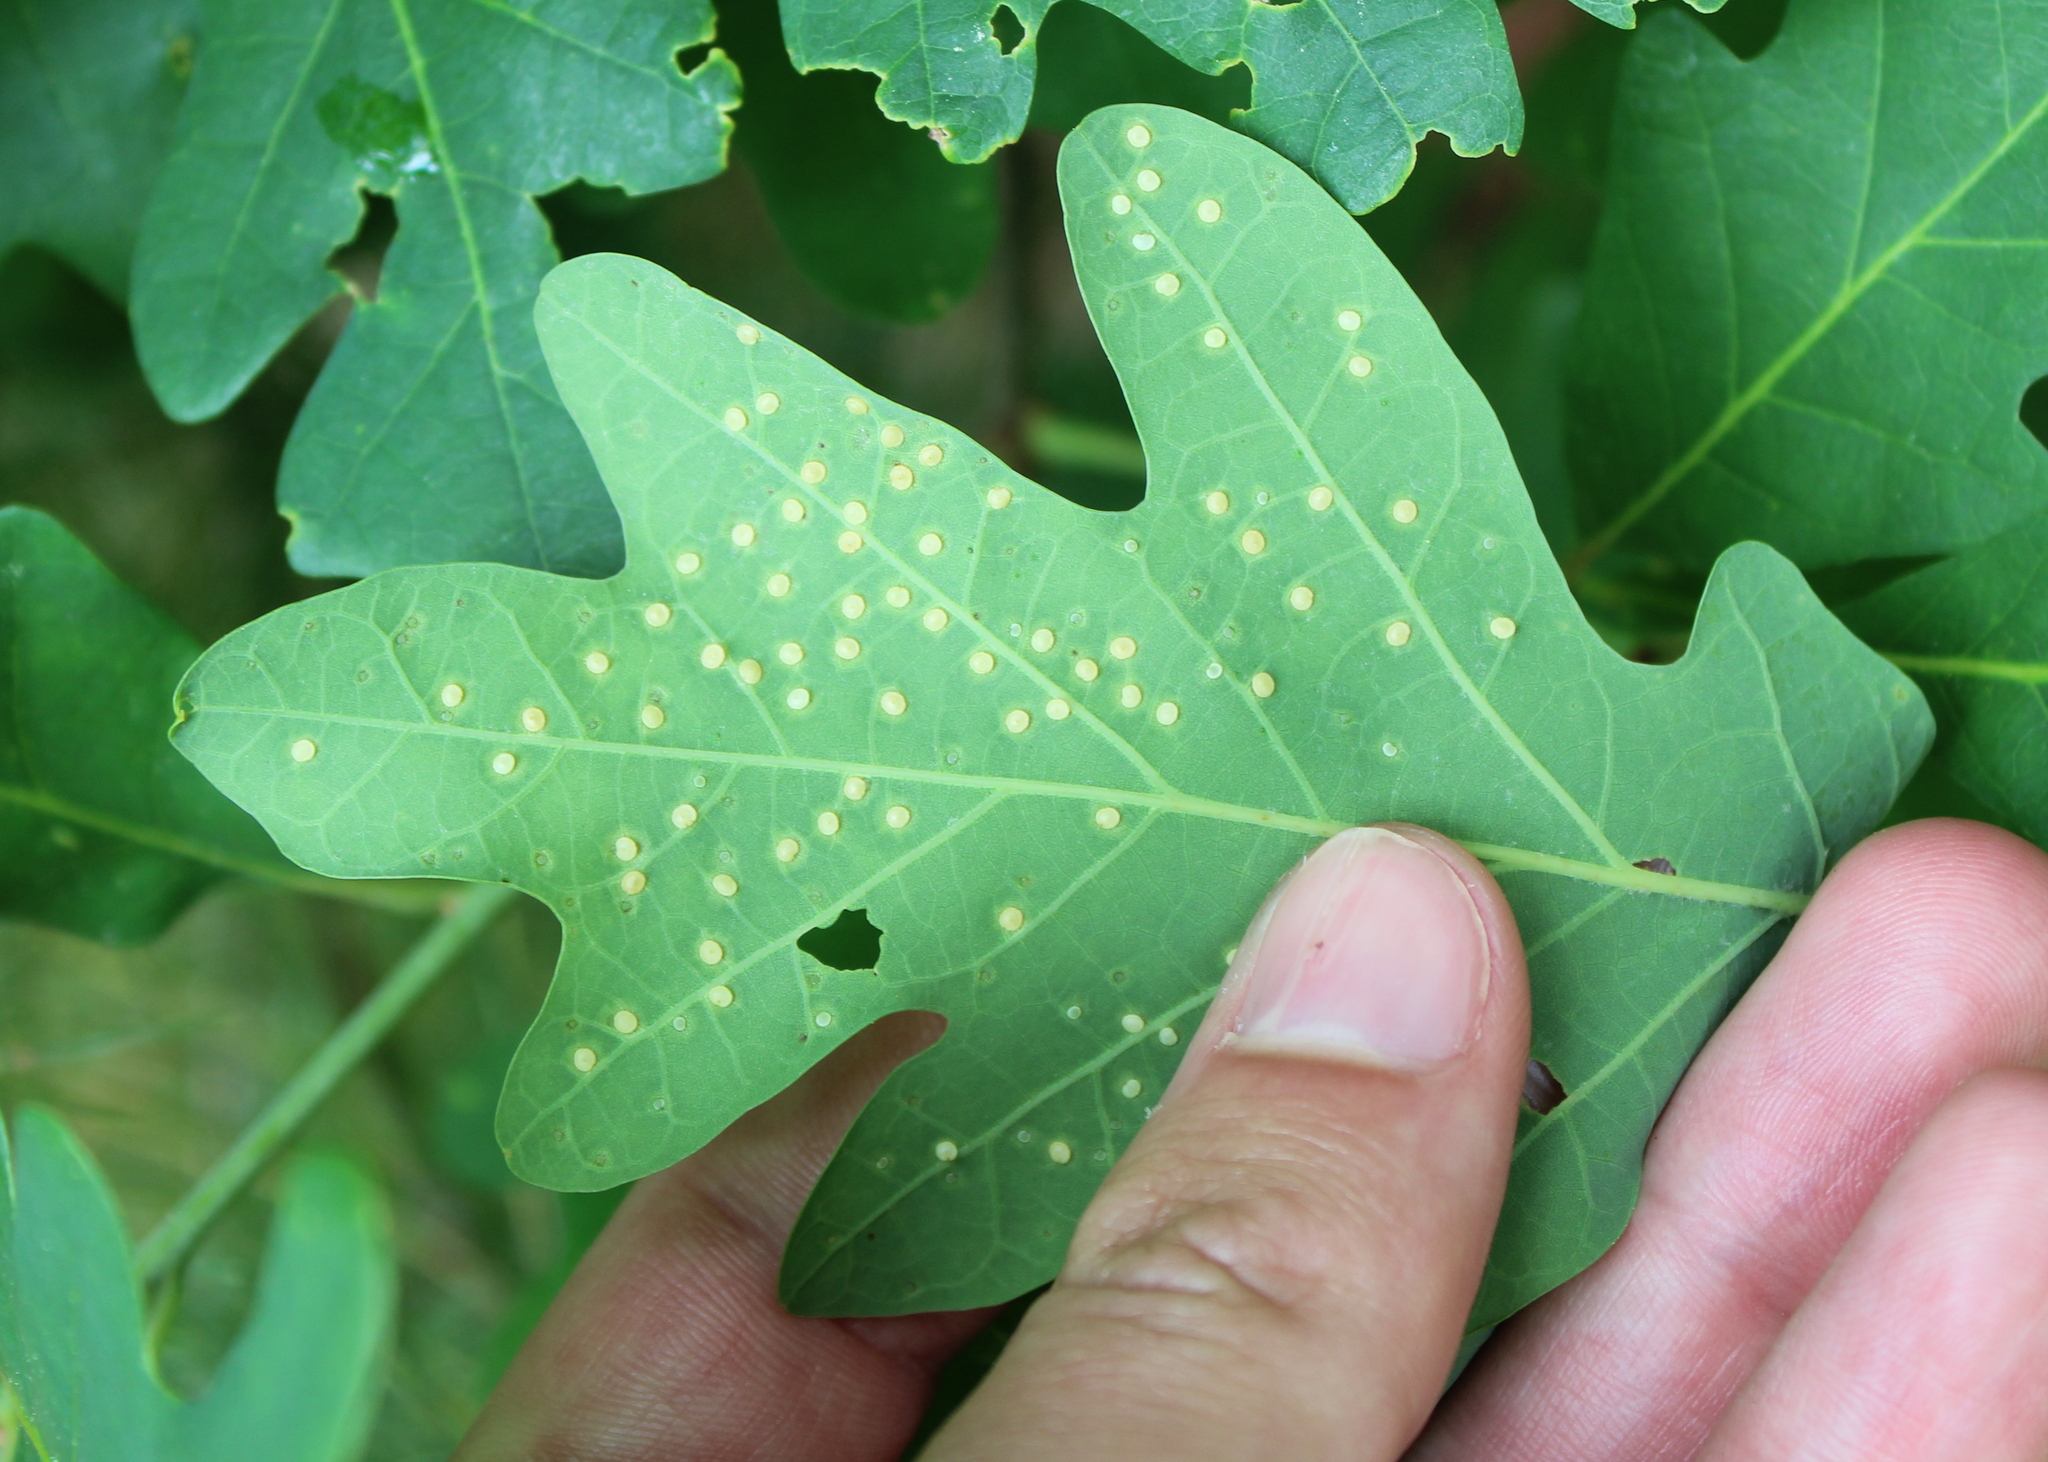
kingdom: Animalia
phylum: Arthropoda
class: Insecta
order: Hymenoptera
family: Cynipidae
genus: Neuroterus
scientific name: Neuroterus
